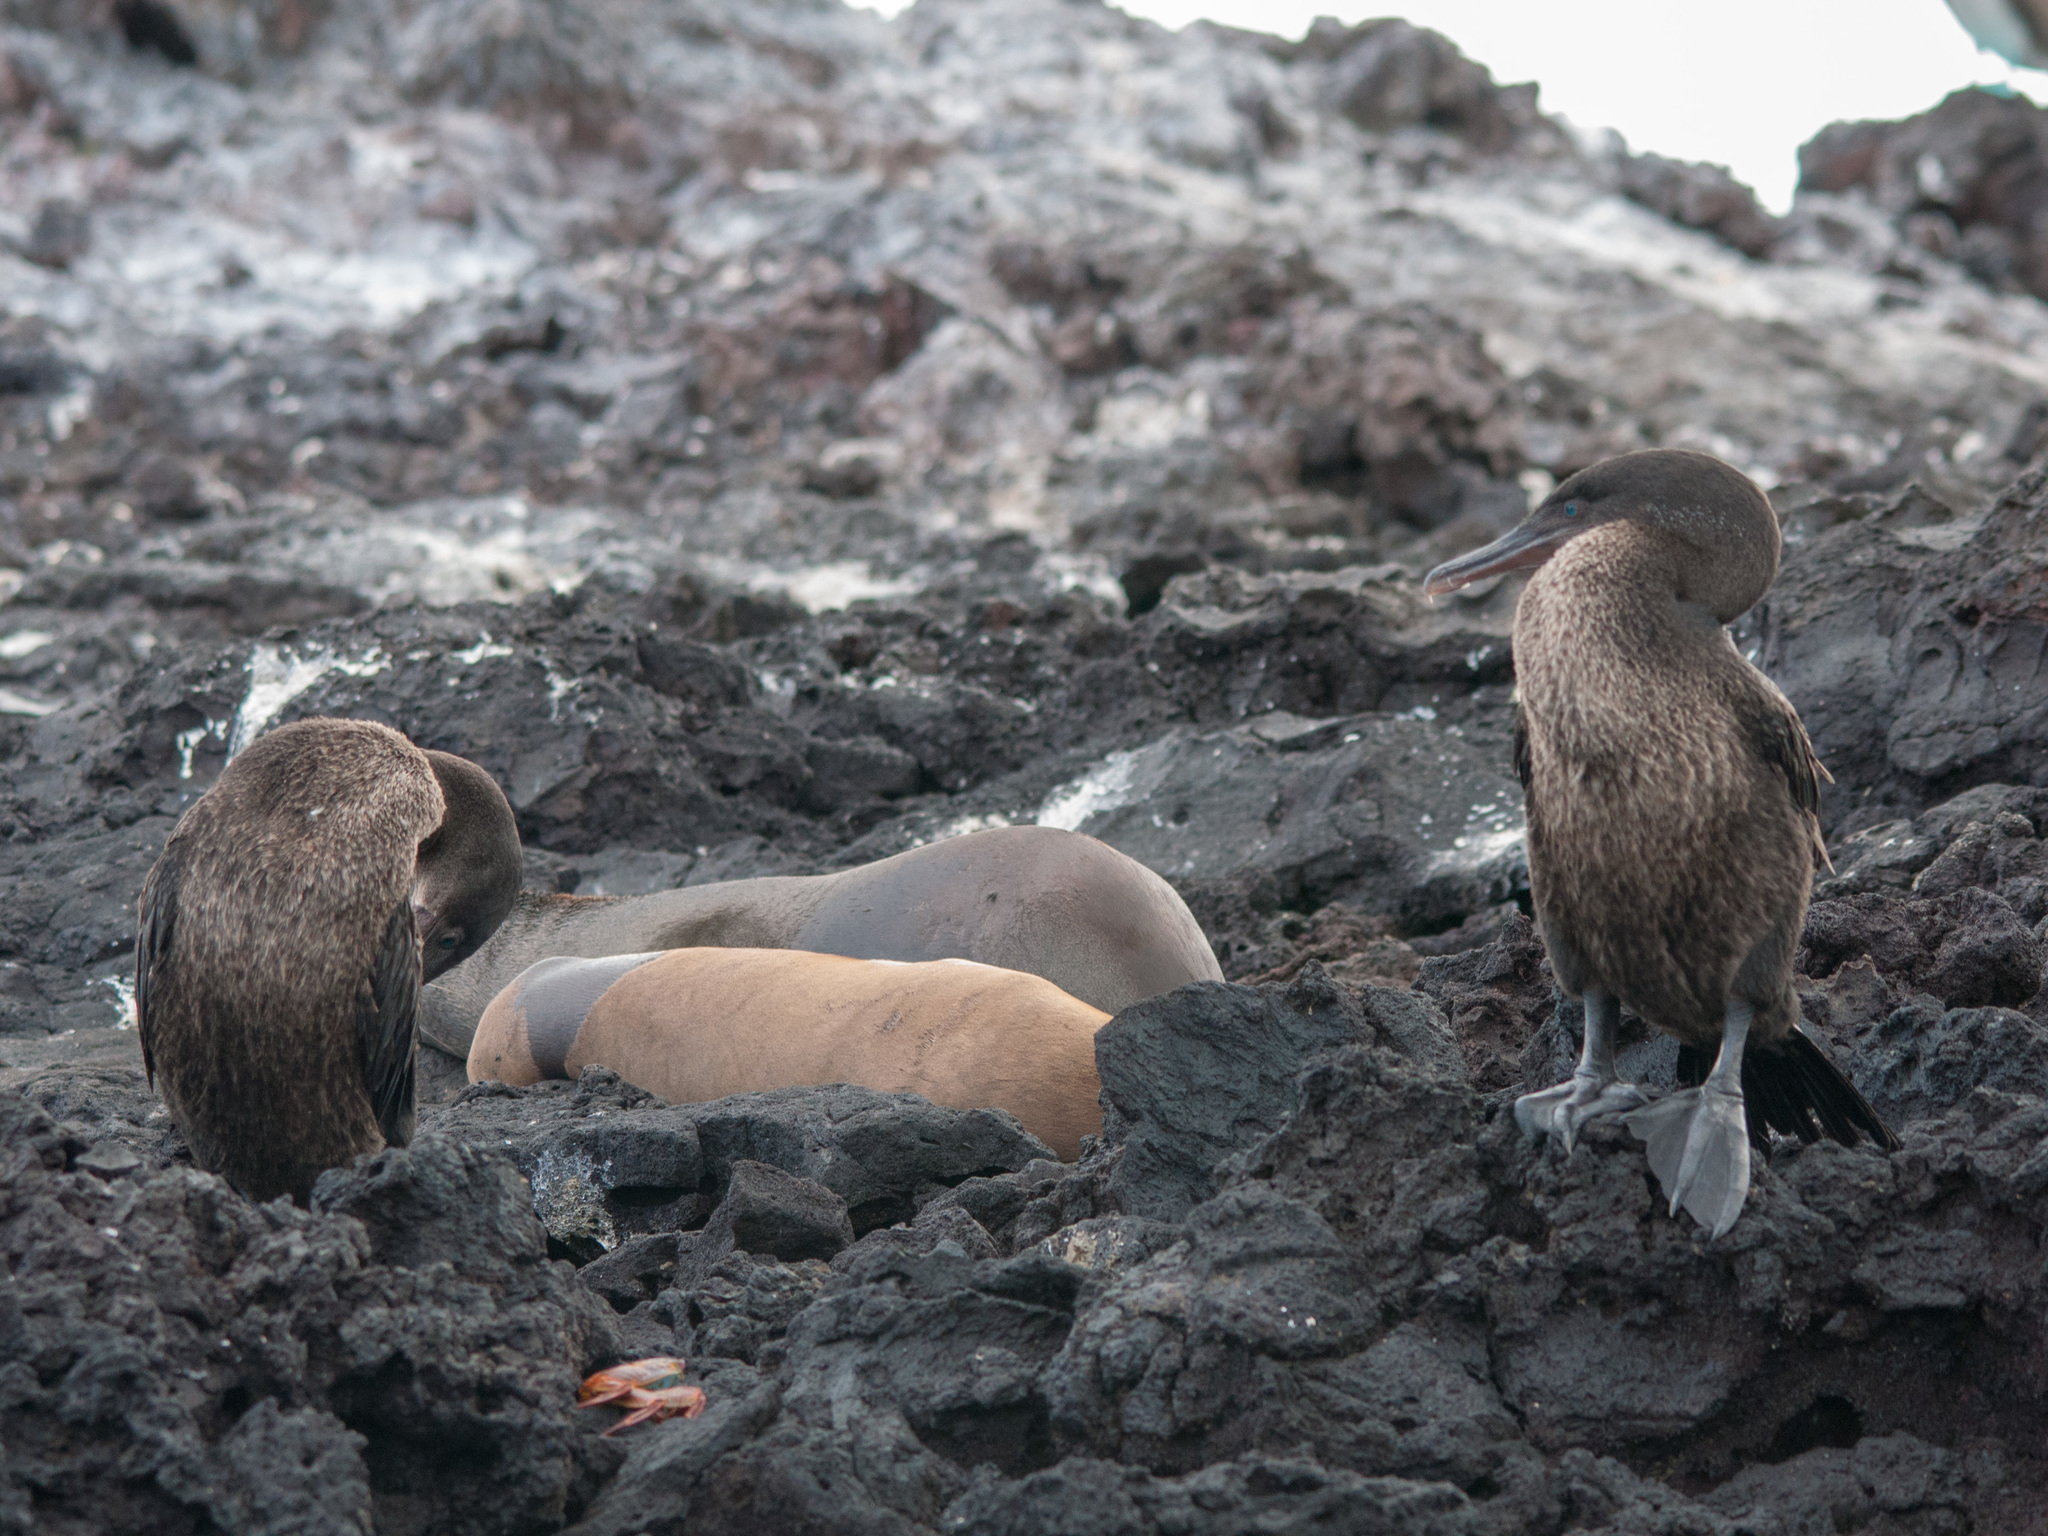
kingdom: Animalia
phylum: Chordata
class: Aves
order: Suliformes
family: Phalacrocoracidae
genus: Phalacrocorax
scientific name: Phalacrocorax harrisi
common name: Flightless cormorant
